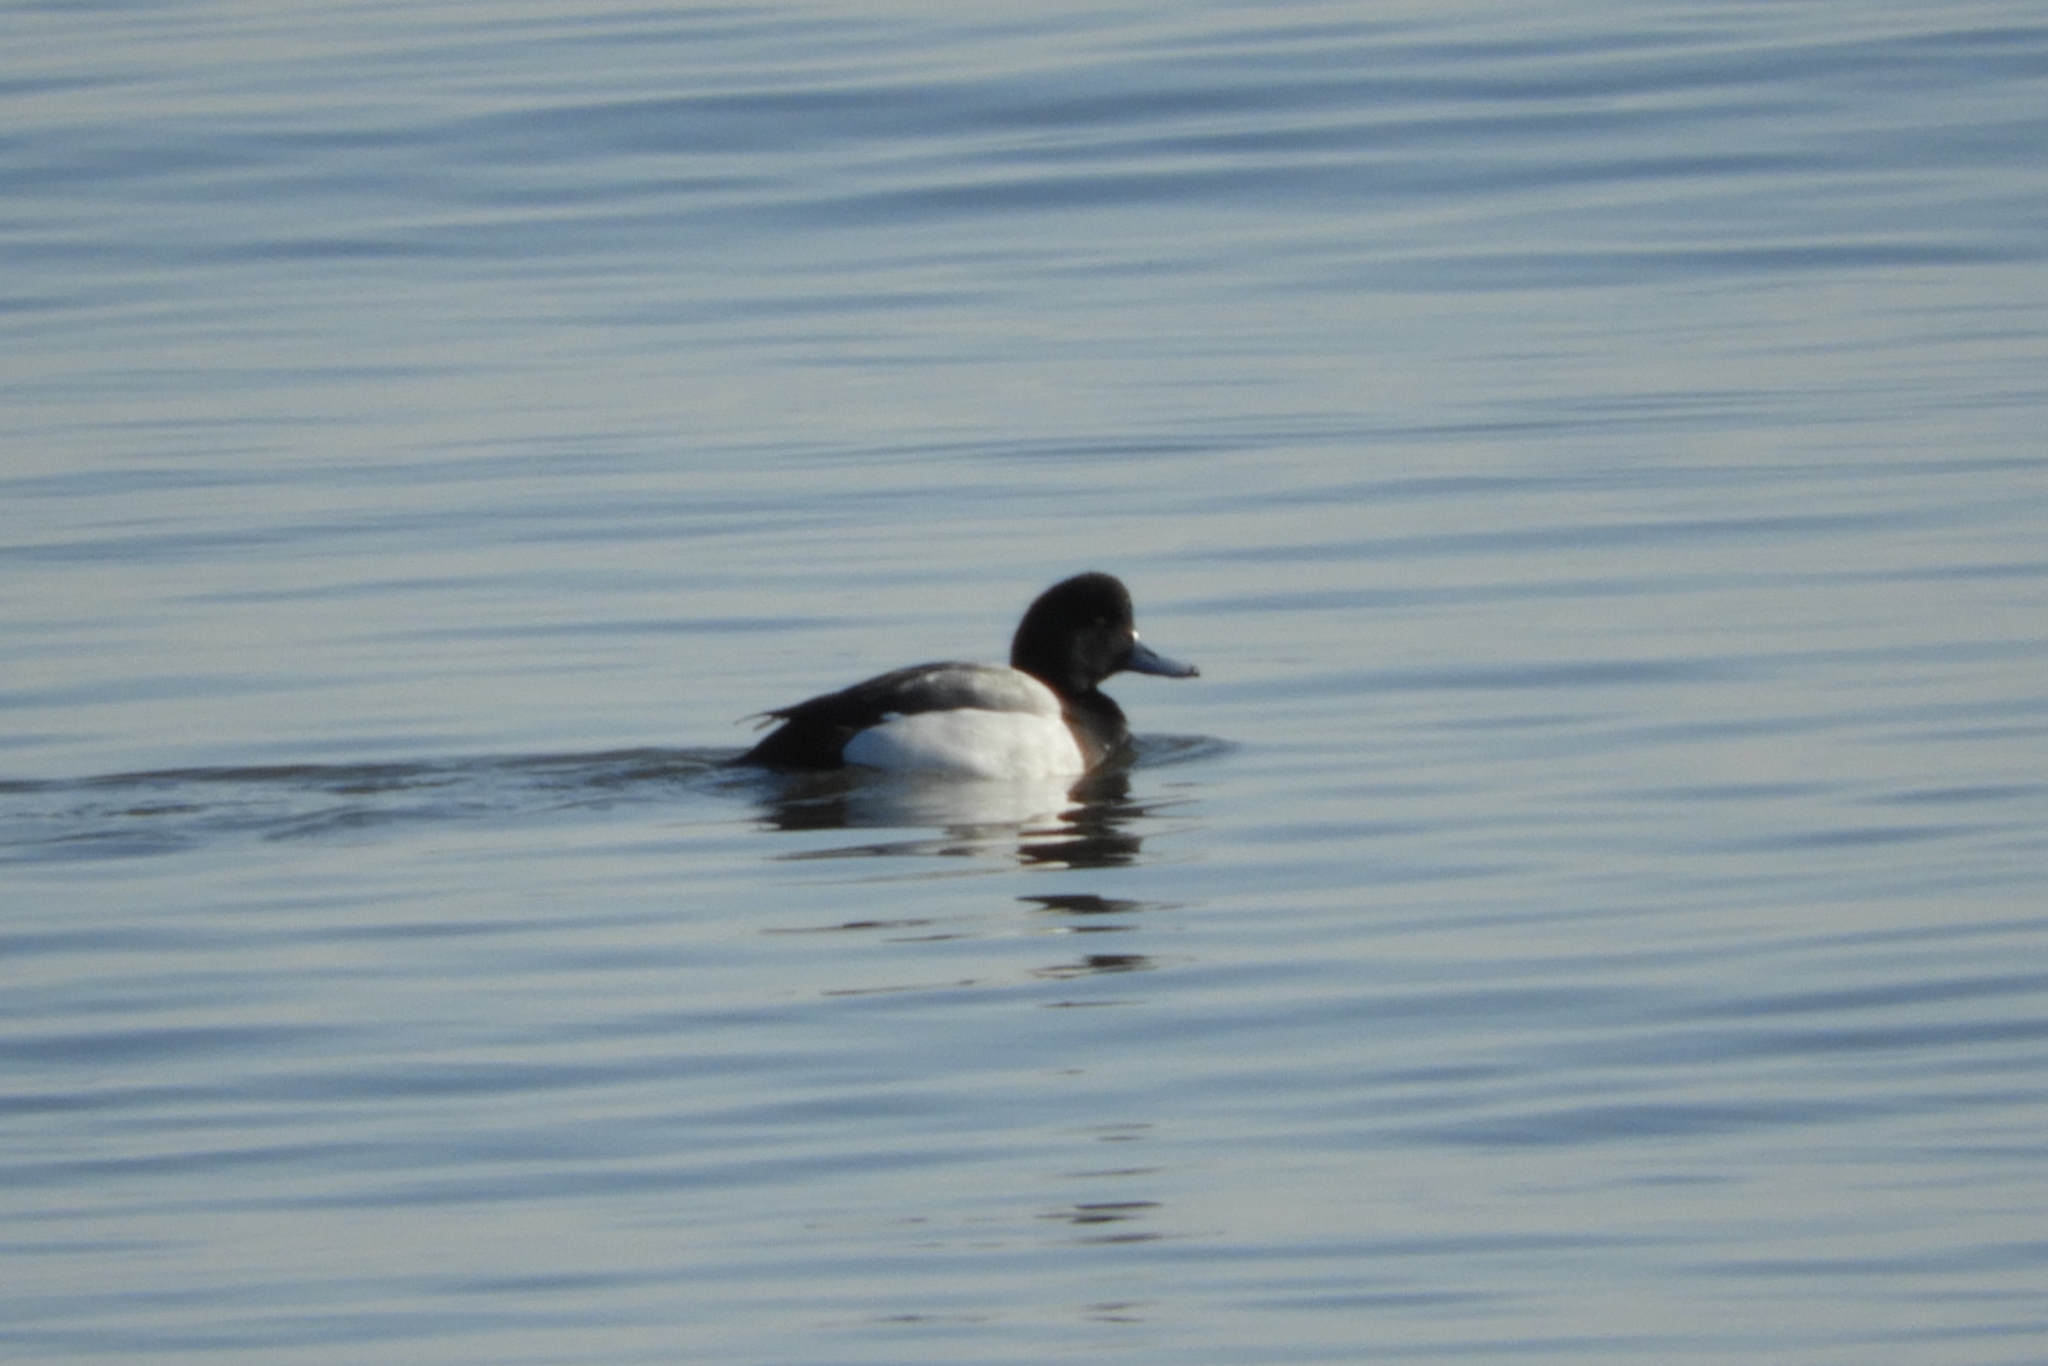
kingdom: Animalia
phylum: Chordata
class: Aves
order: Anseriformes
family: Anatidae
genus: Aythya
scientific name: Aythya marila
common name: Greater scaup
